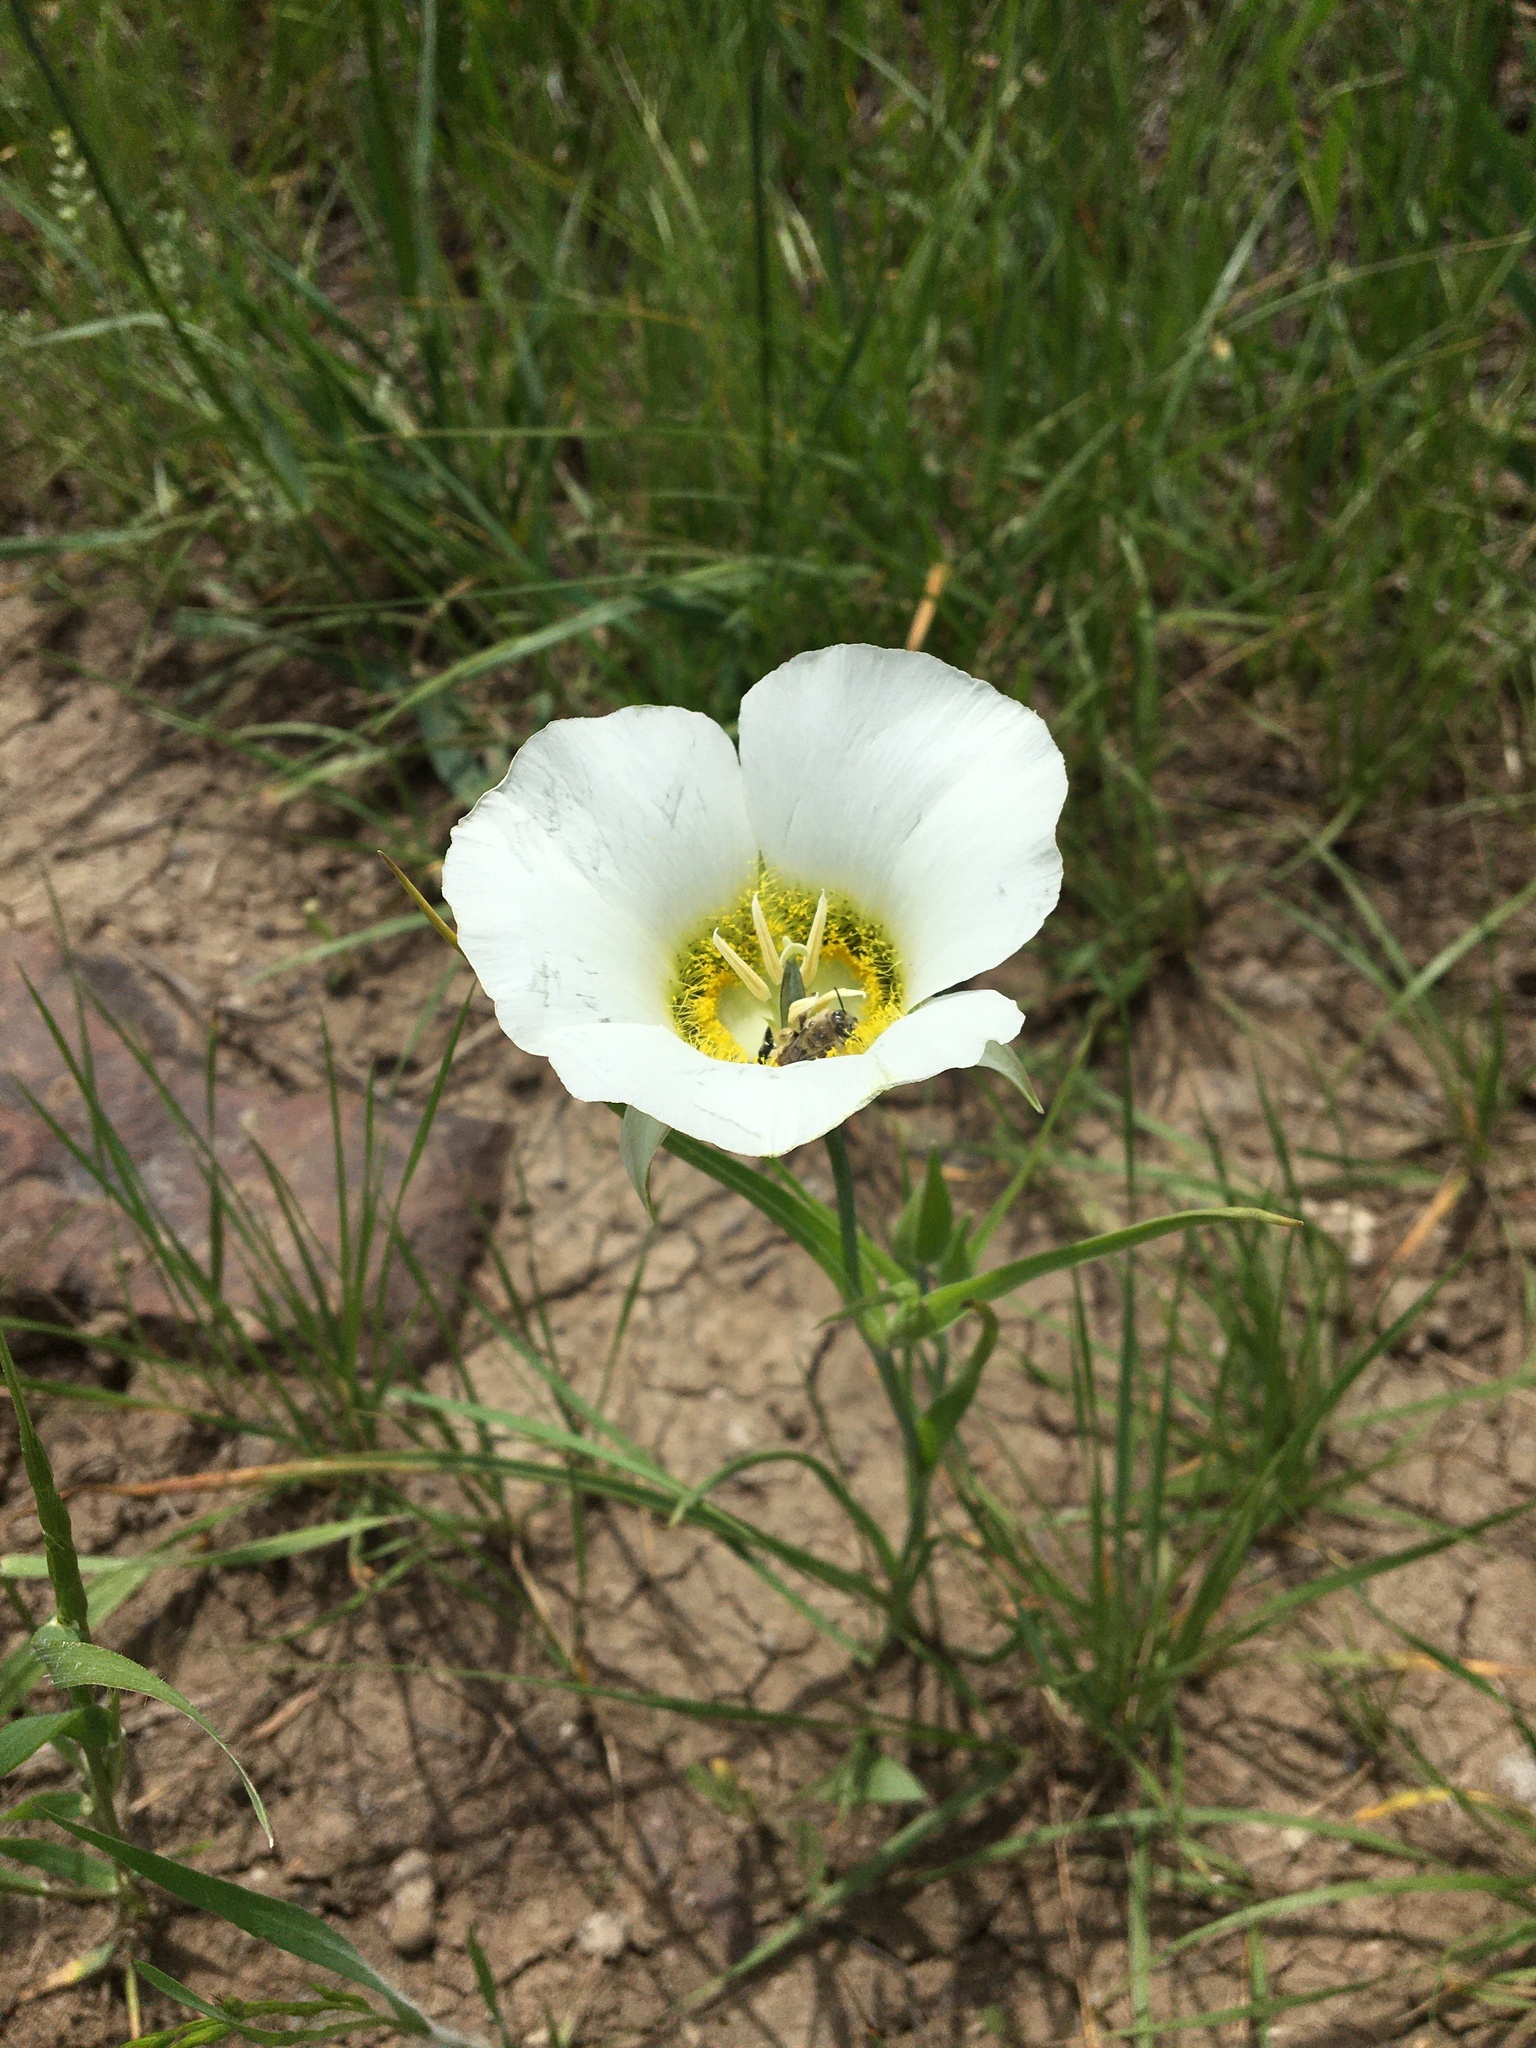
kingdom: Plantae
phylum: Tracheophyta
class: Liliopsida
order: Liliales
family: Liliaceae
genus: Calochortus
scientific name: Calochortus gunnisonii
